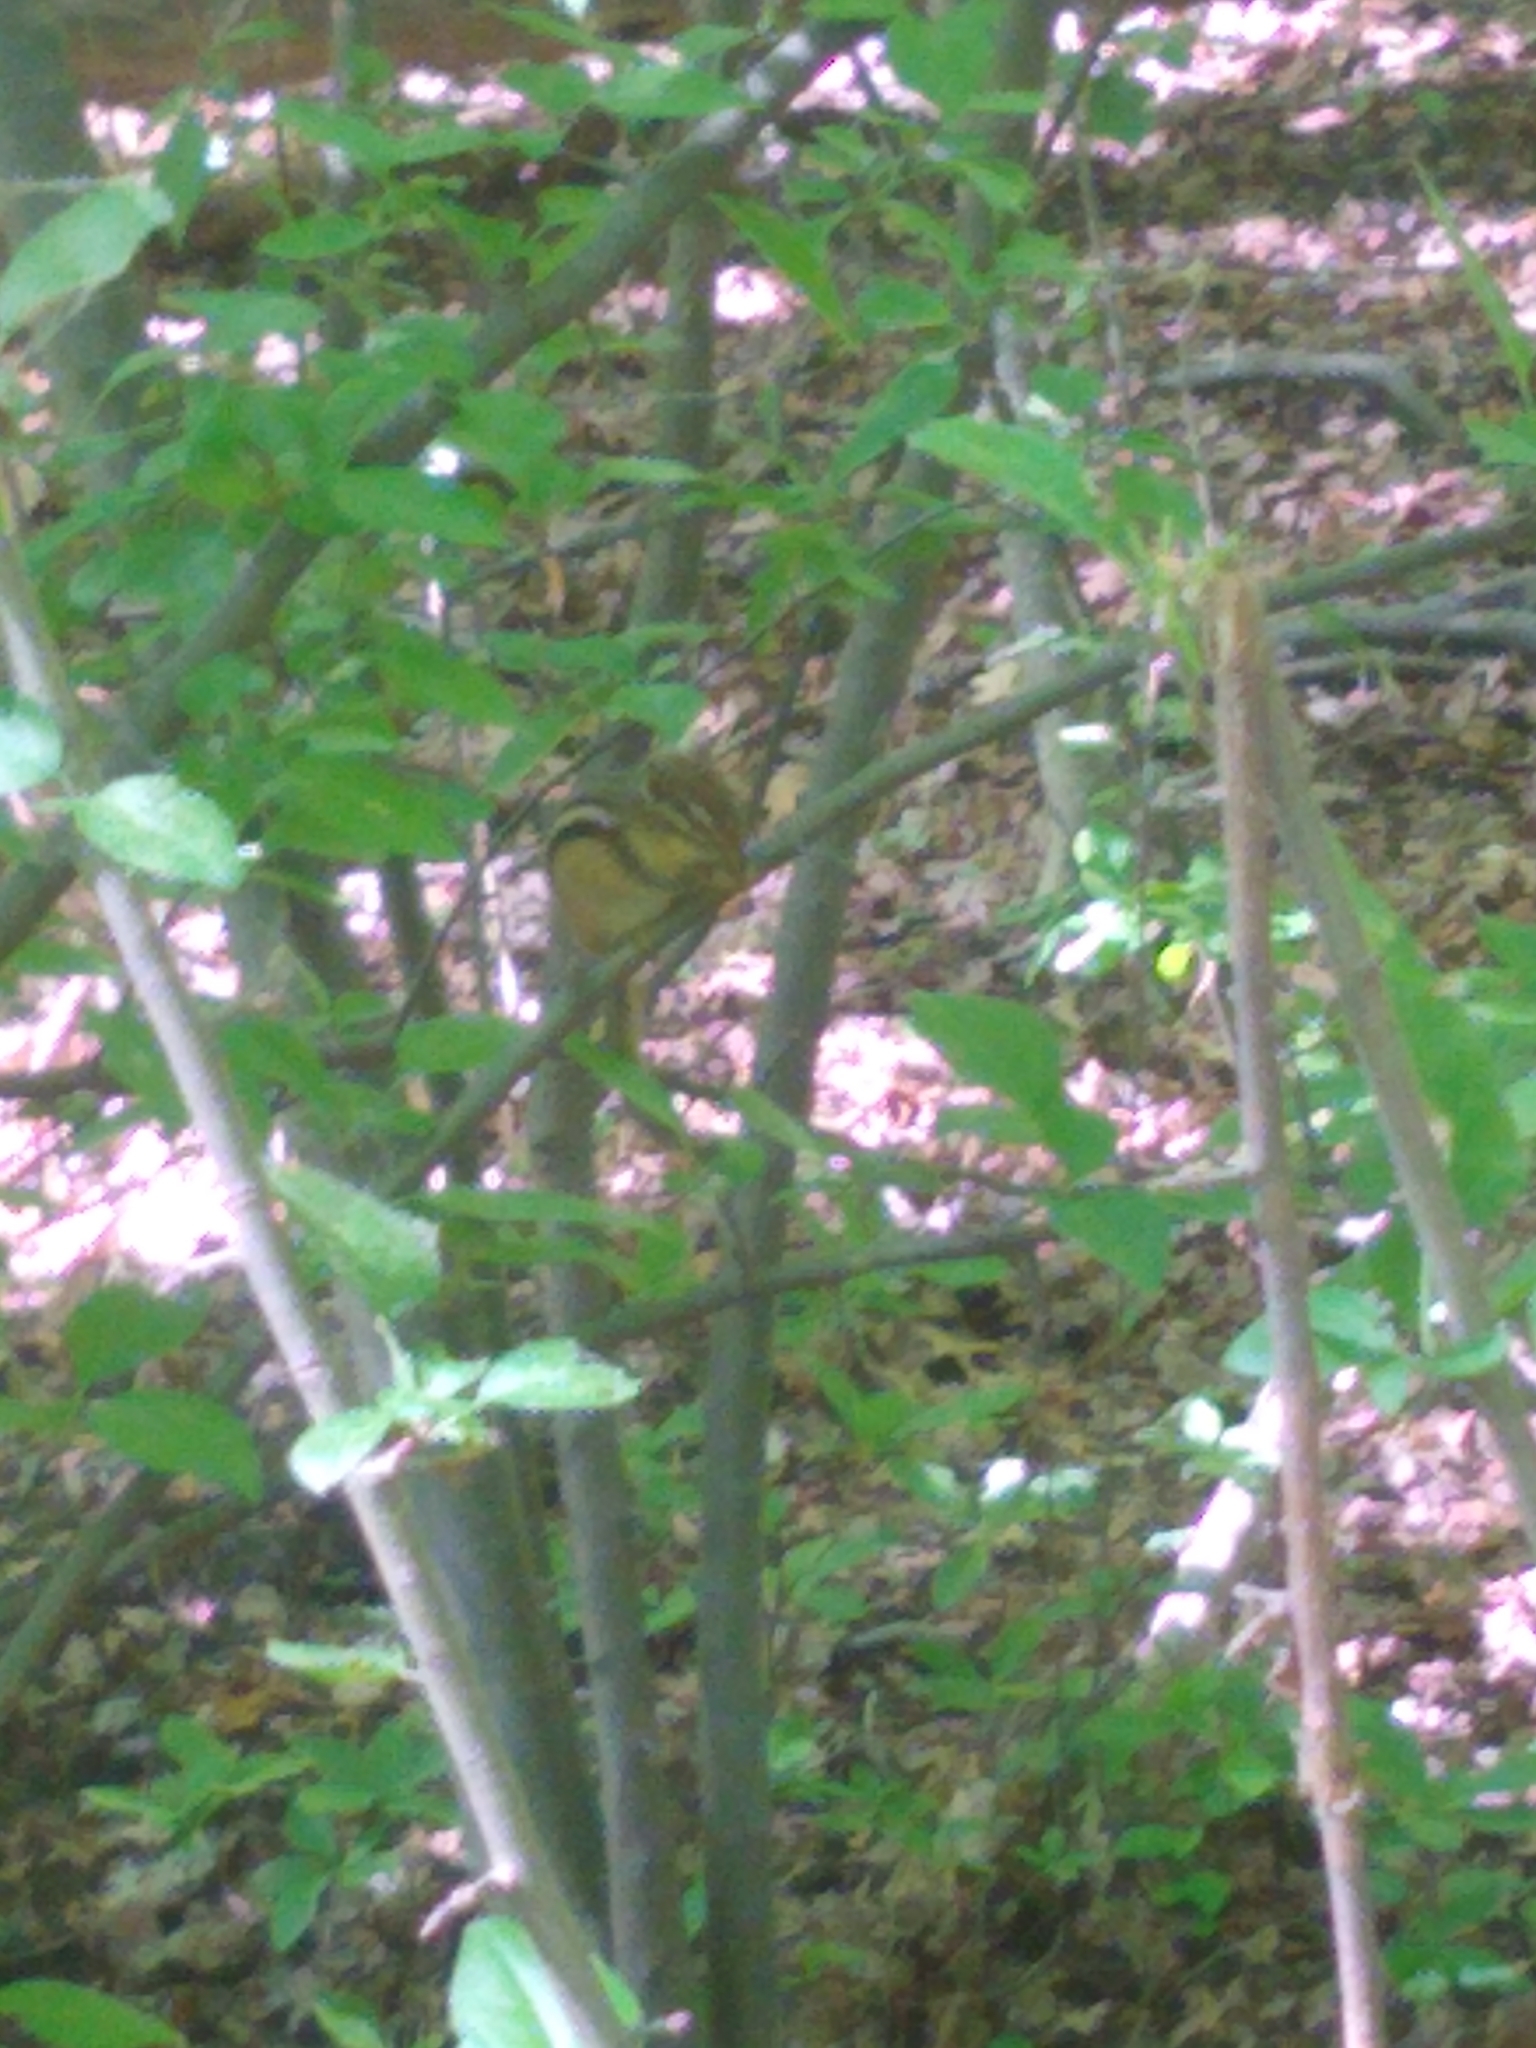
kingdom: Animalia
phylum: Chordata
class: Mammalia
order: Rodentia
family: Sciuridae
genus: Tamias
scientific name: Tamias striatus
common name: Eastern chipmunk
